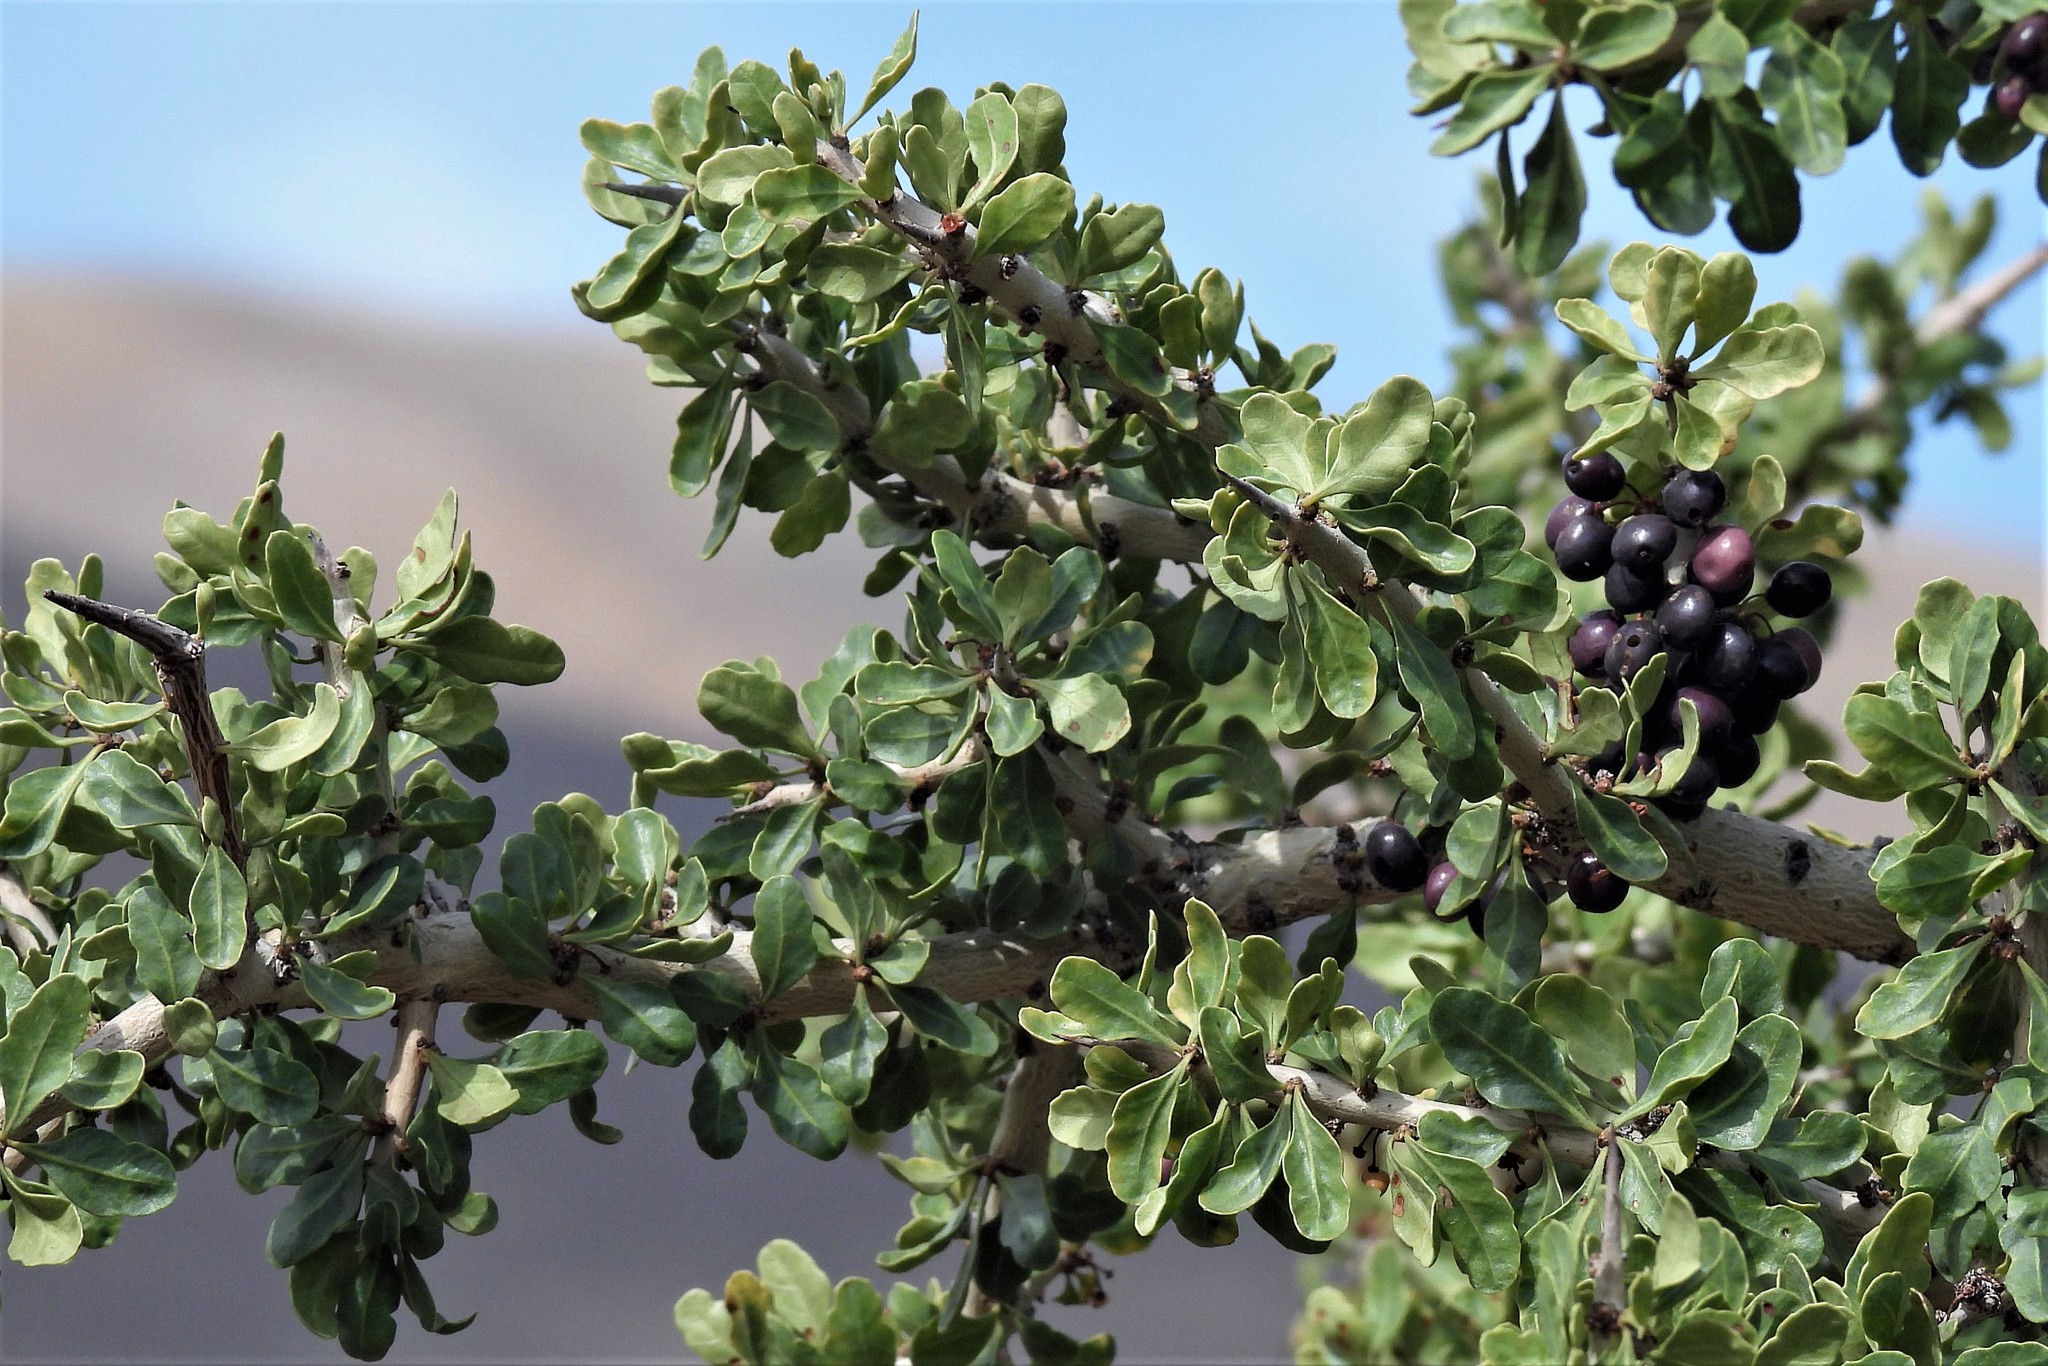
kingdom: Plantae
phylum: Tracheophyta
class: Magnoliopsida
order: Sapindales
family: Anacardiaceae
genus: Schinus
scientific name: Schinus odonellii
